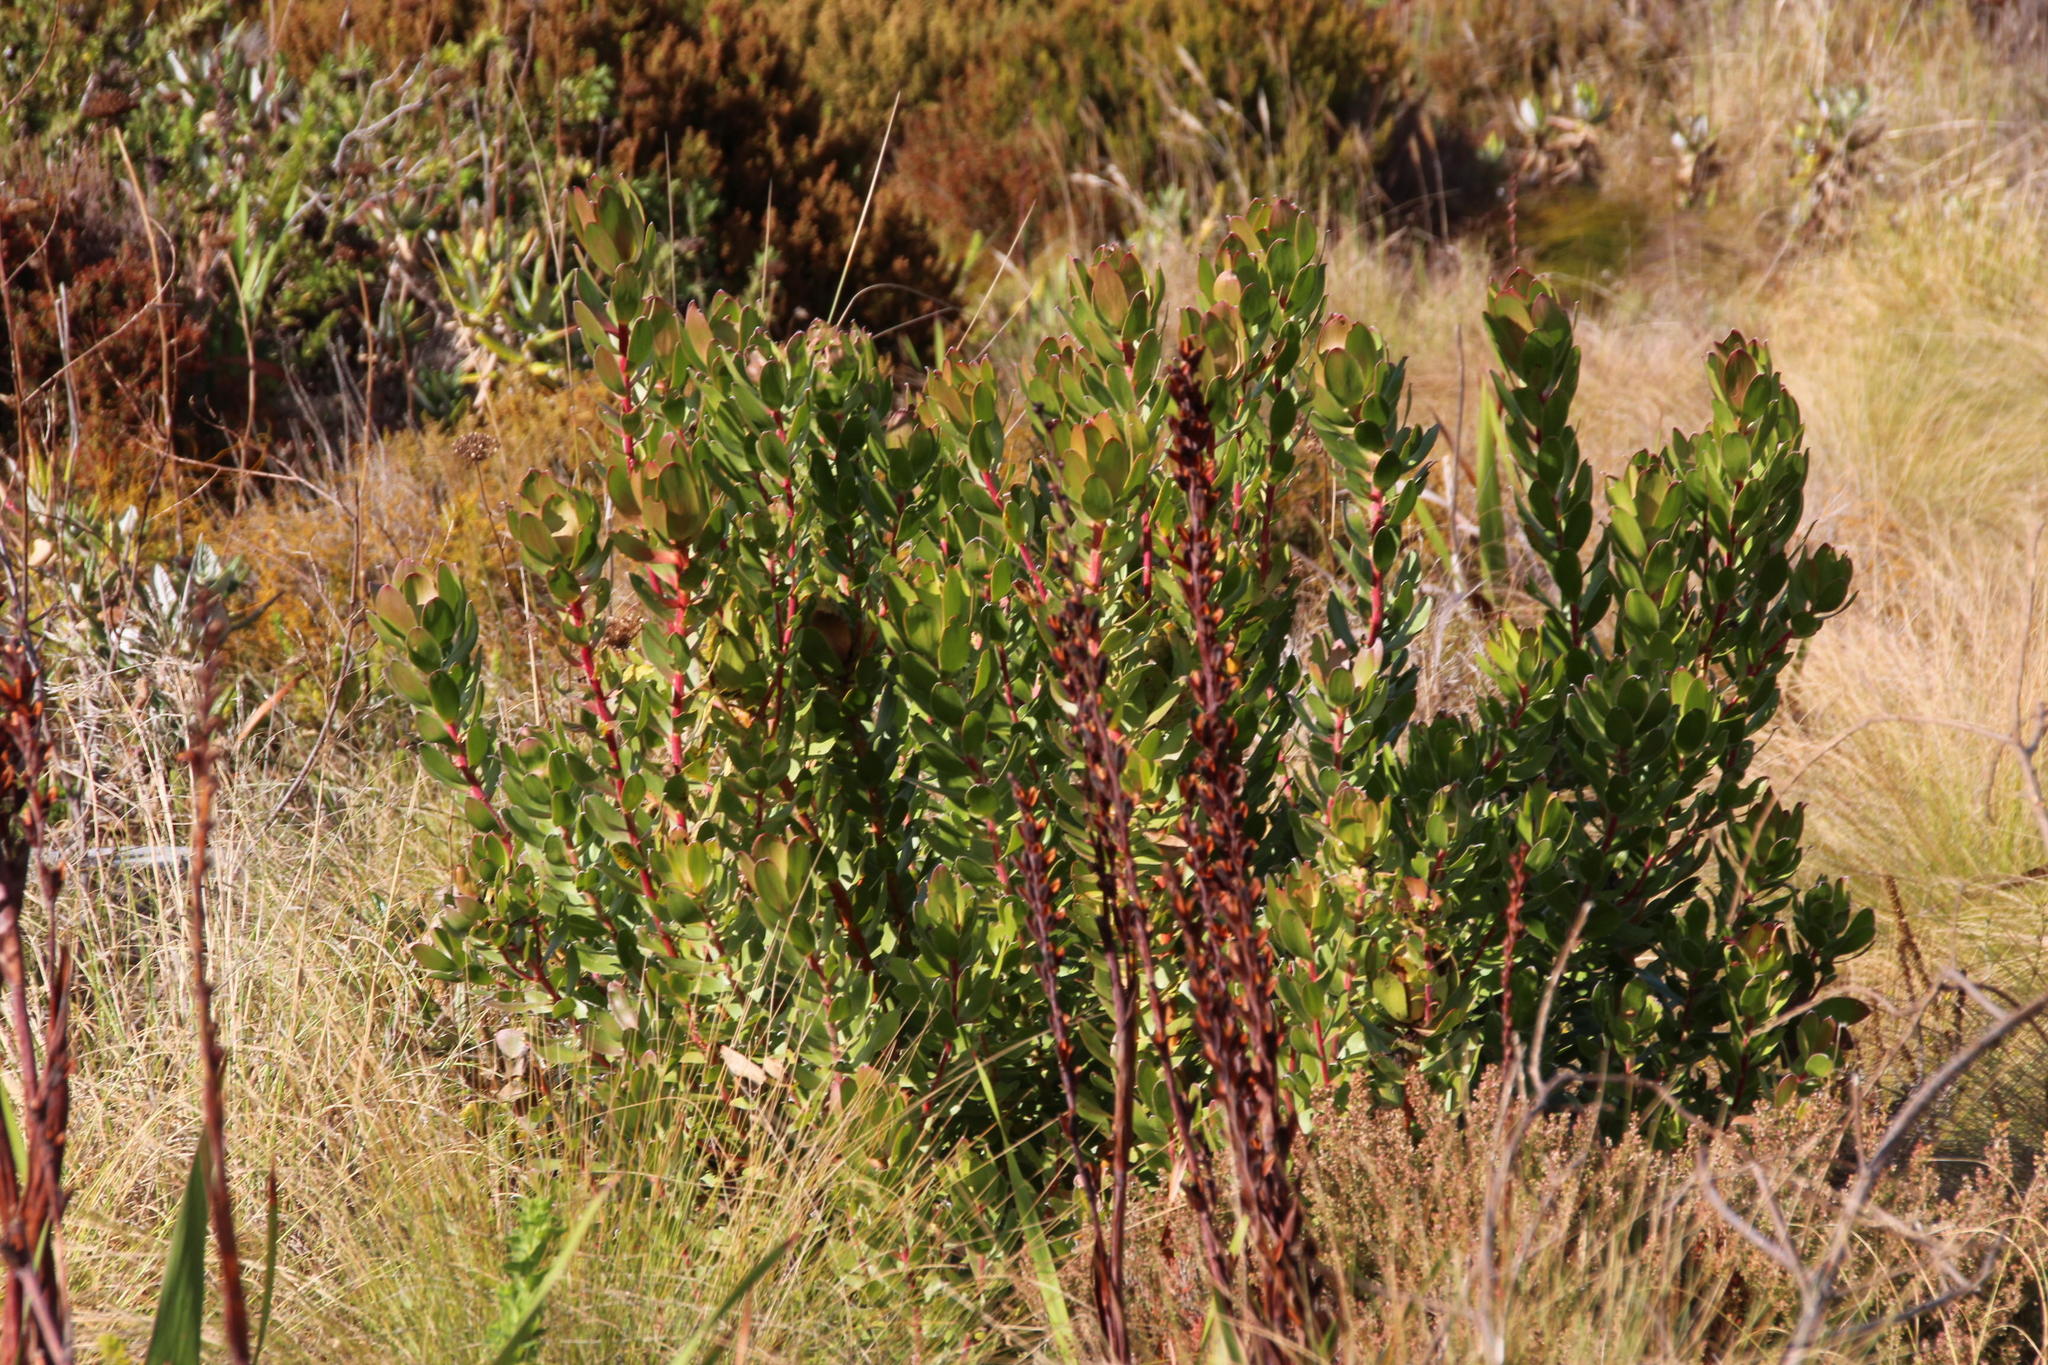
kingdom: Plantae
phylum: Tracheophyta
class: Magnoliopsida
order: Proteales
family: Proteaceae
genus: Leucadendron
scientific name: Leucadendron strobilinum
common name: Mountain rose
